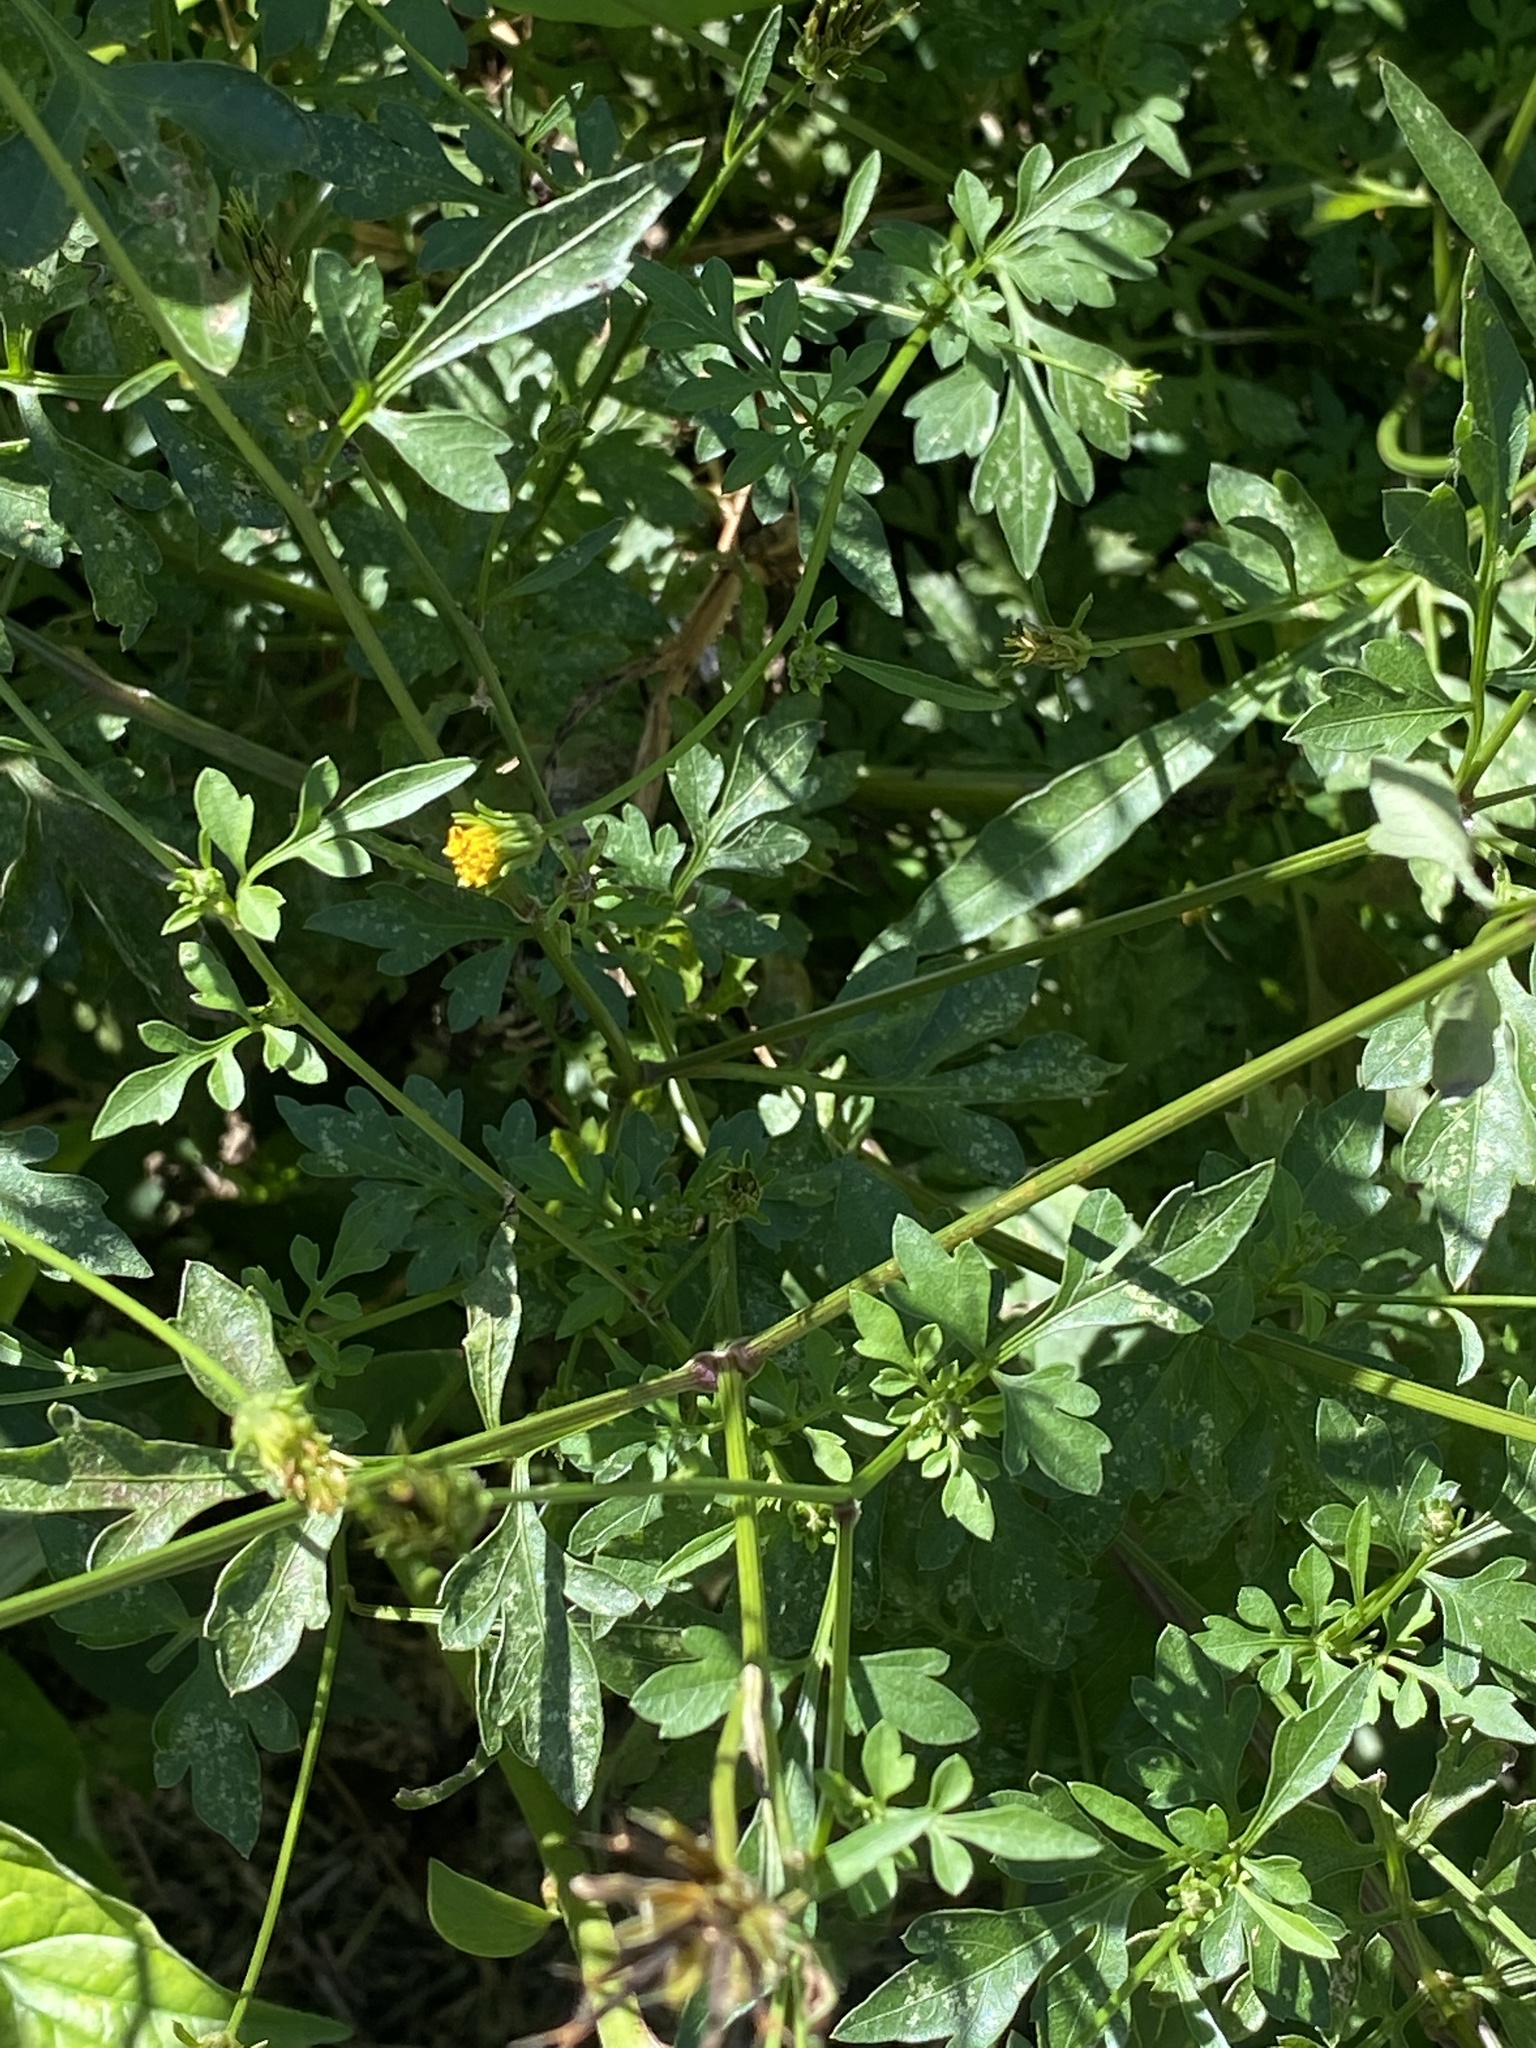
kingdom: Plantae
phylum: Tracheophyta
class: Magnoliopsida
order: Asterales
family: Asteraceae
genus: Bidens
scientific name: Bidens bipinnata
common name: Spanish-needles
